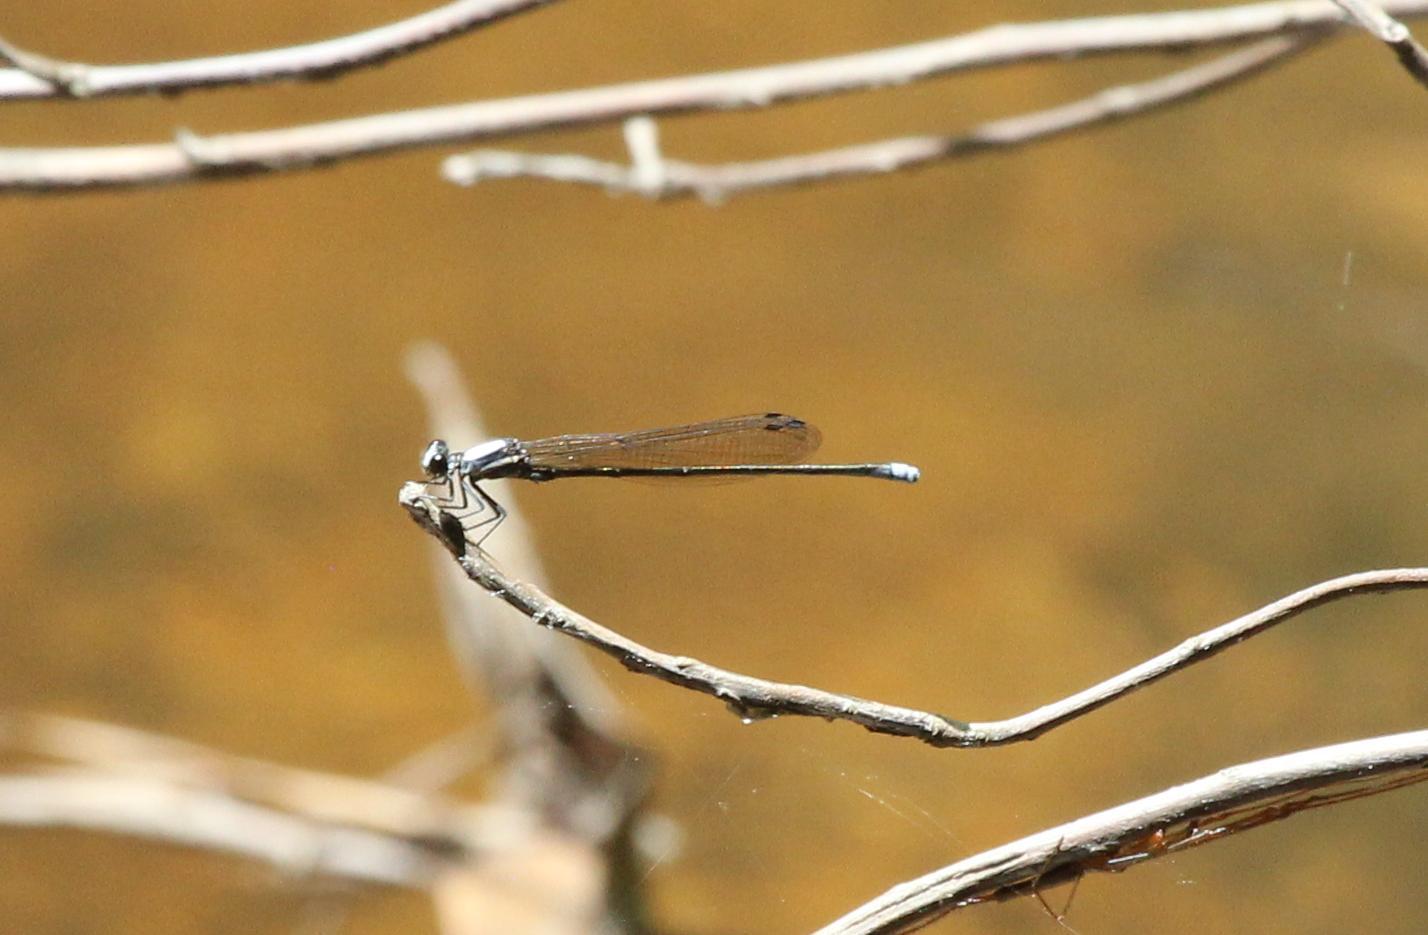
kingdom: Animalia
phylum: Arthropoda
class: Insecta
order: Odonata
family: Coenagrionidae
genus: Argia
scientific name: Argia moesta
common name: Powdered dancer
